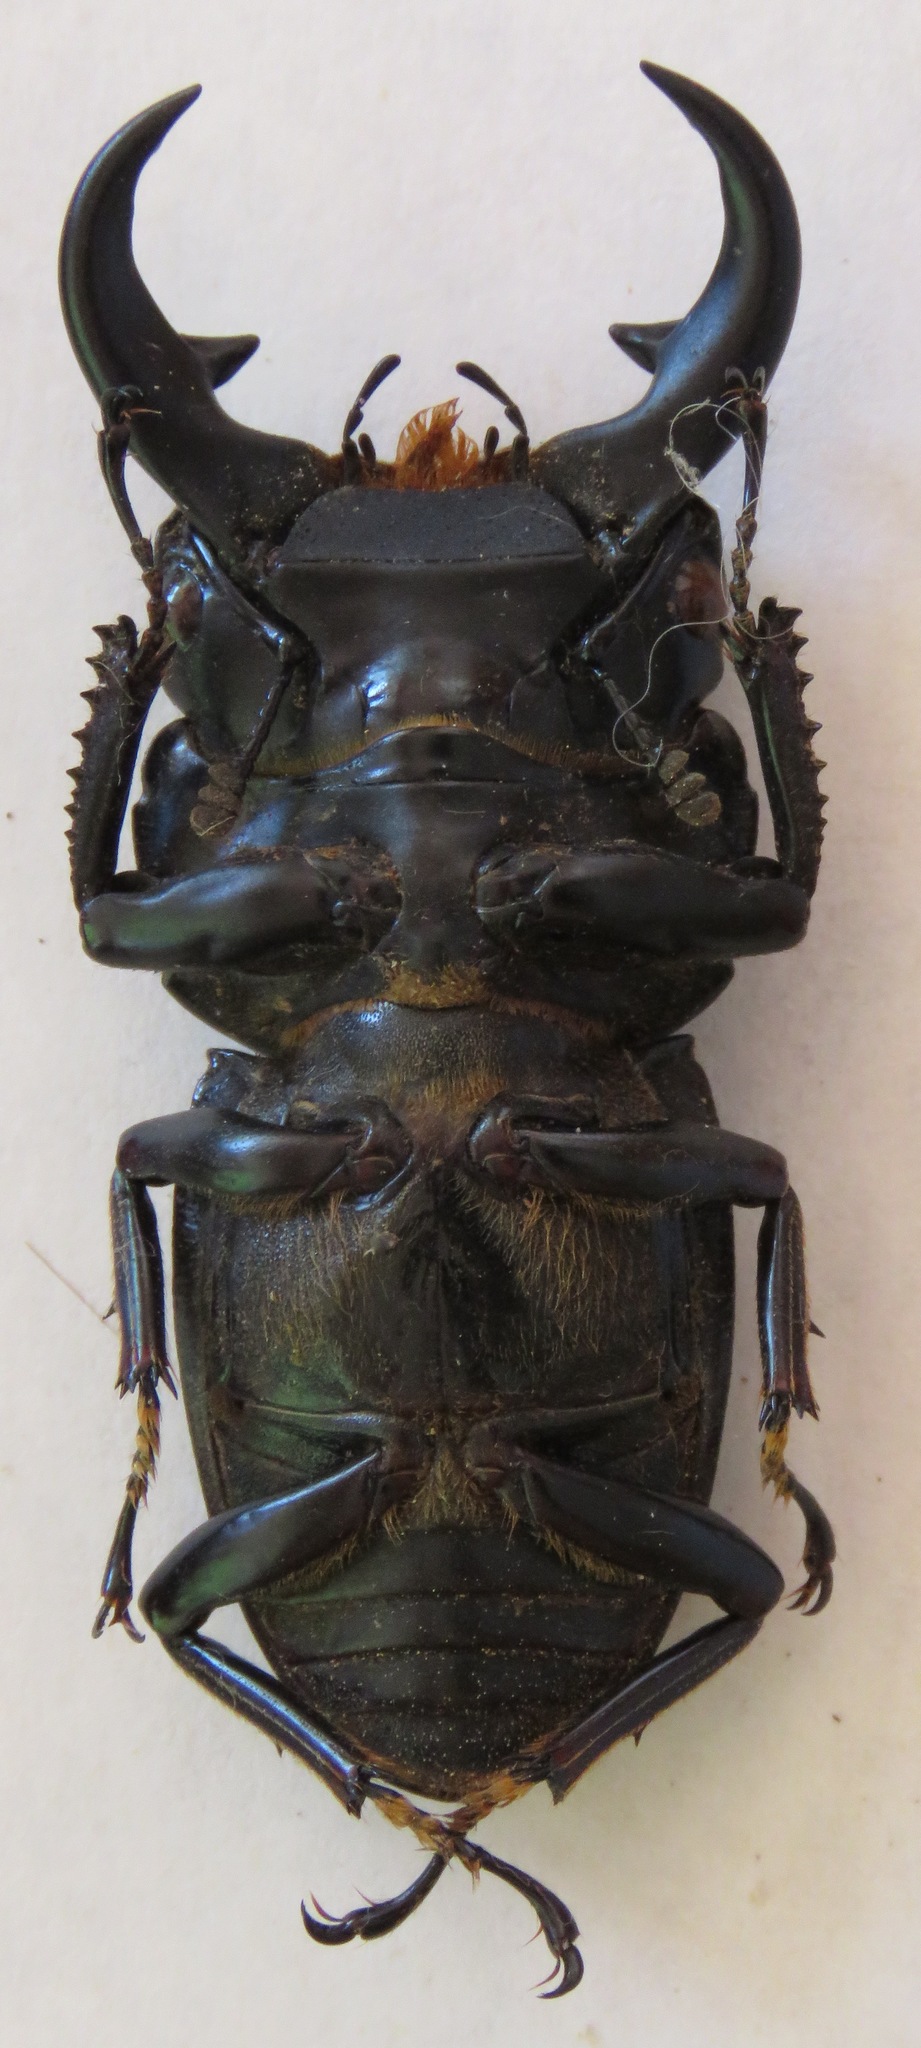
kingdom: Animalia
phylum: Arthropoda
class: Insecta
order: Coleoptera
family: Lucanidae
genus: Dorcus
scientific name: Dorcus ritsemae
